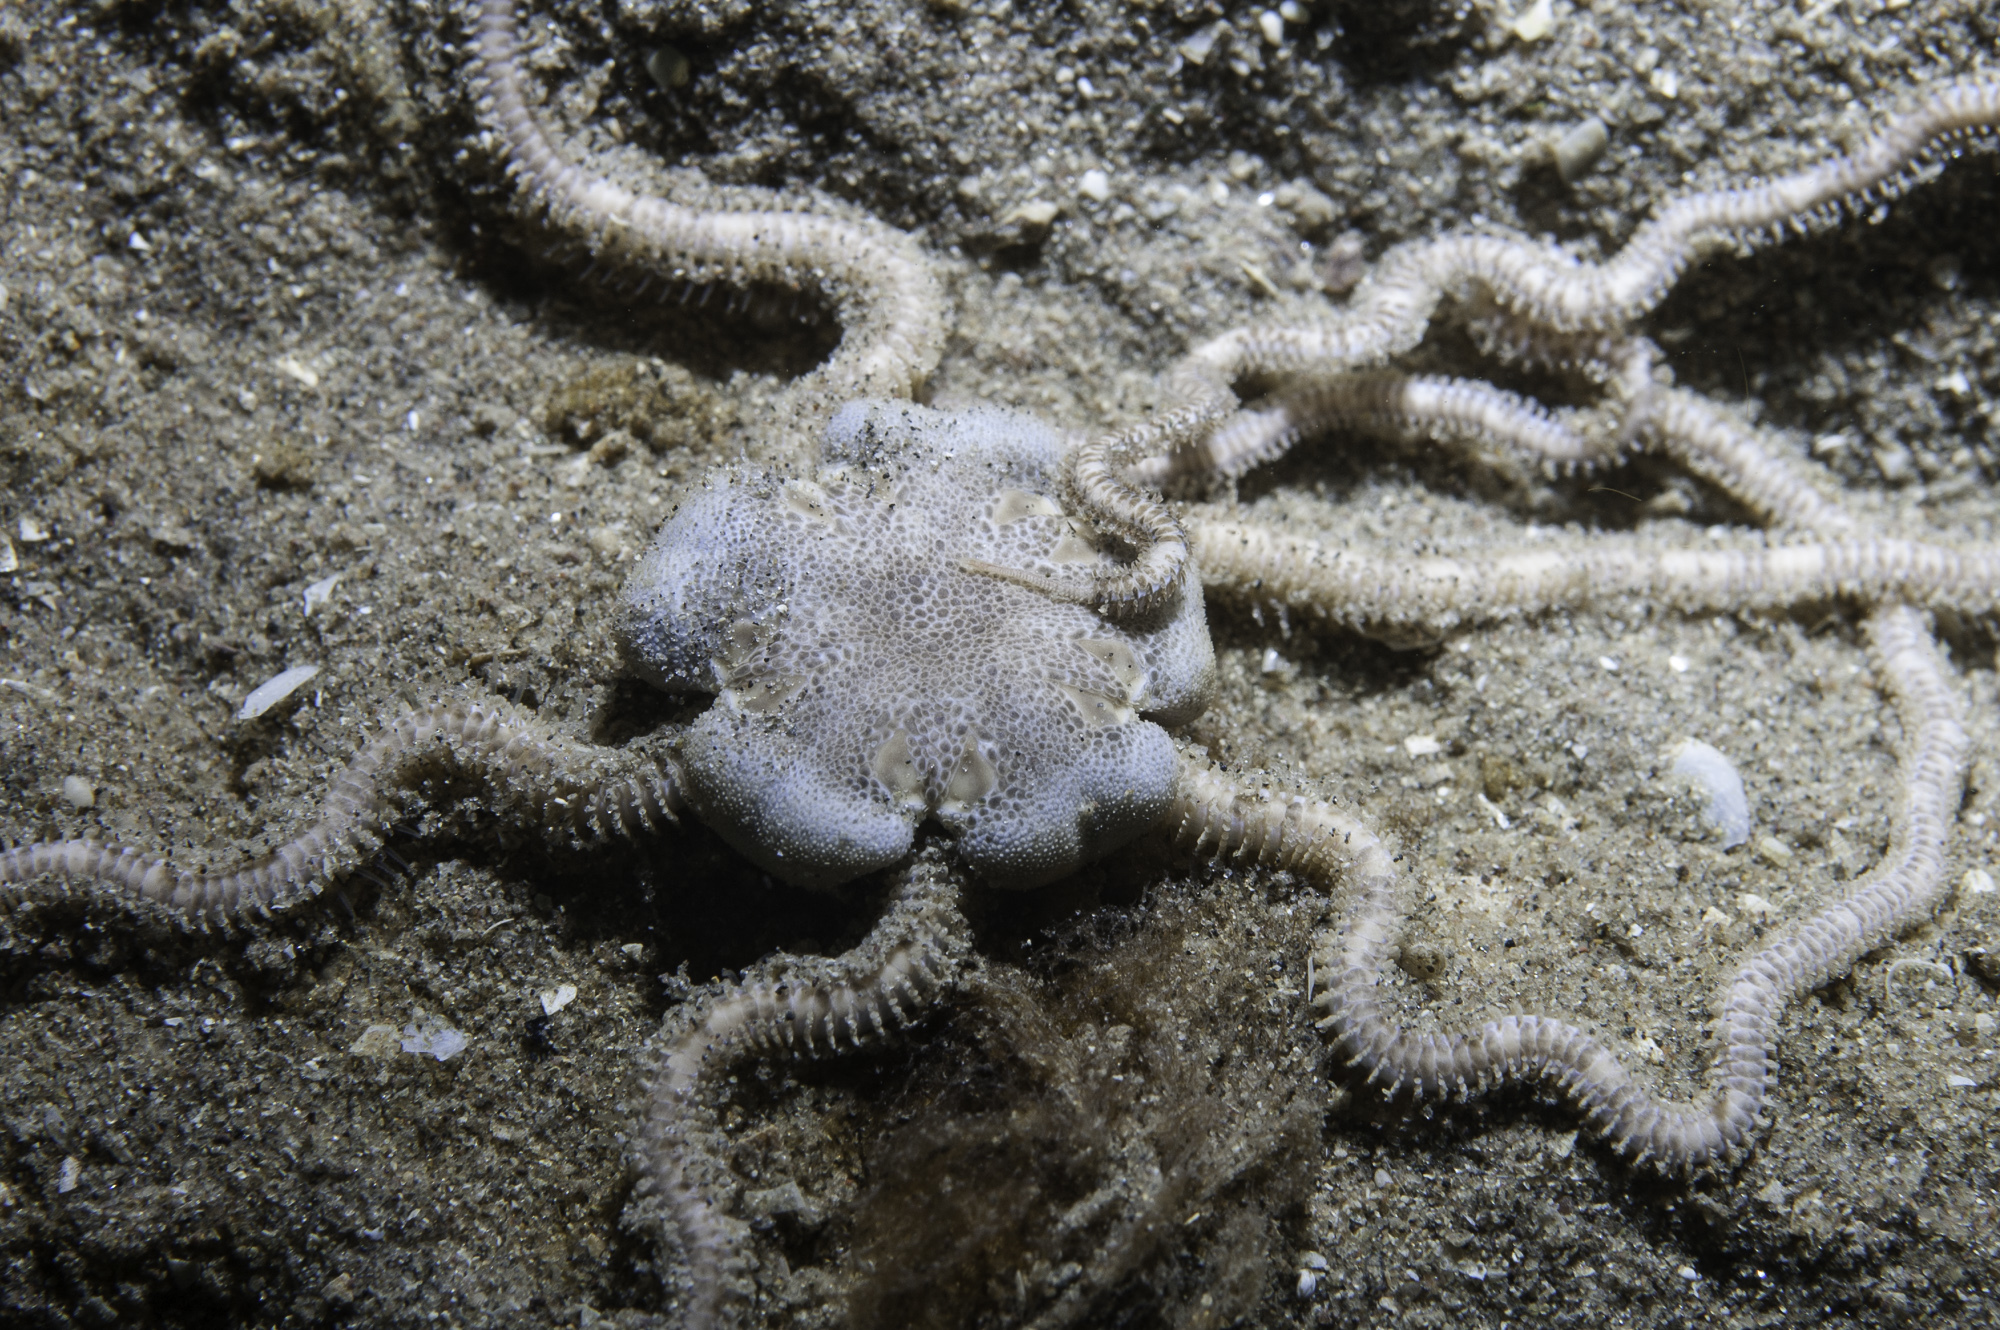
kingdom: Animalia
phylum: Echinodermata
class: Ophiuroidea
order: Amphilepidida
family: Amphiuridae
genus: Acrocnida
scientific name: Acrocnida brachiata
